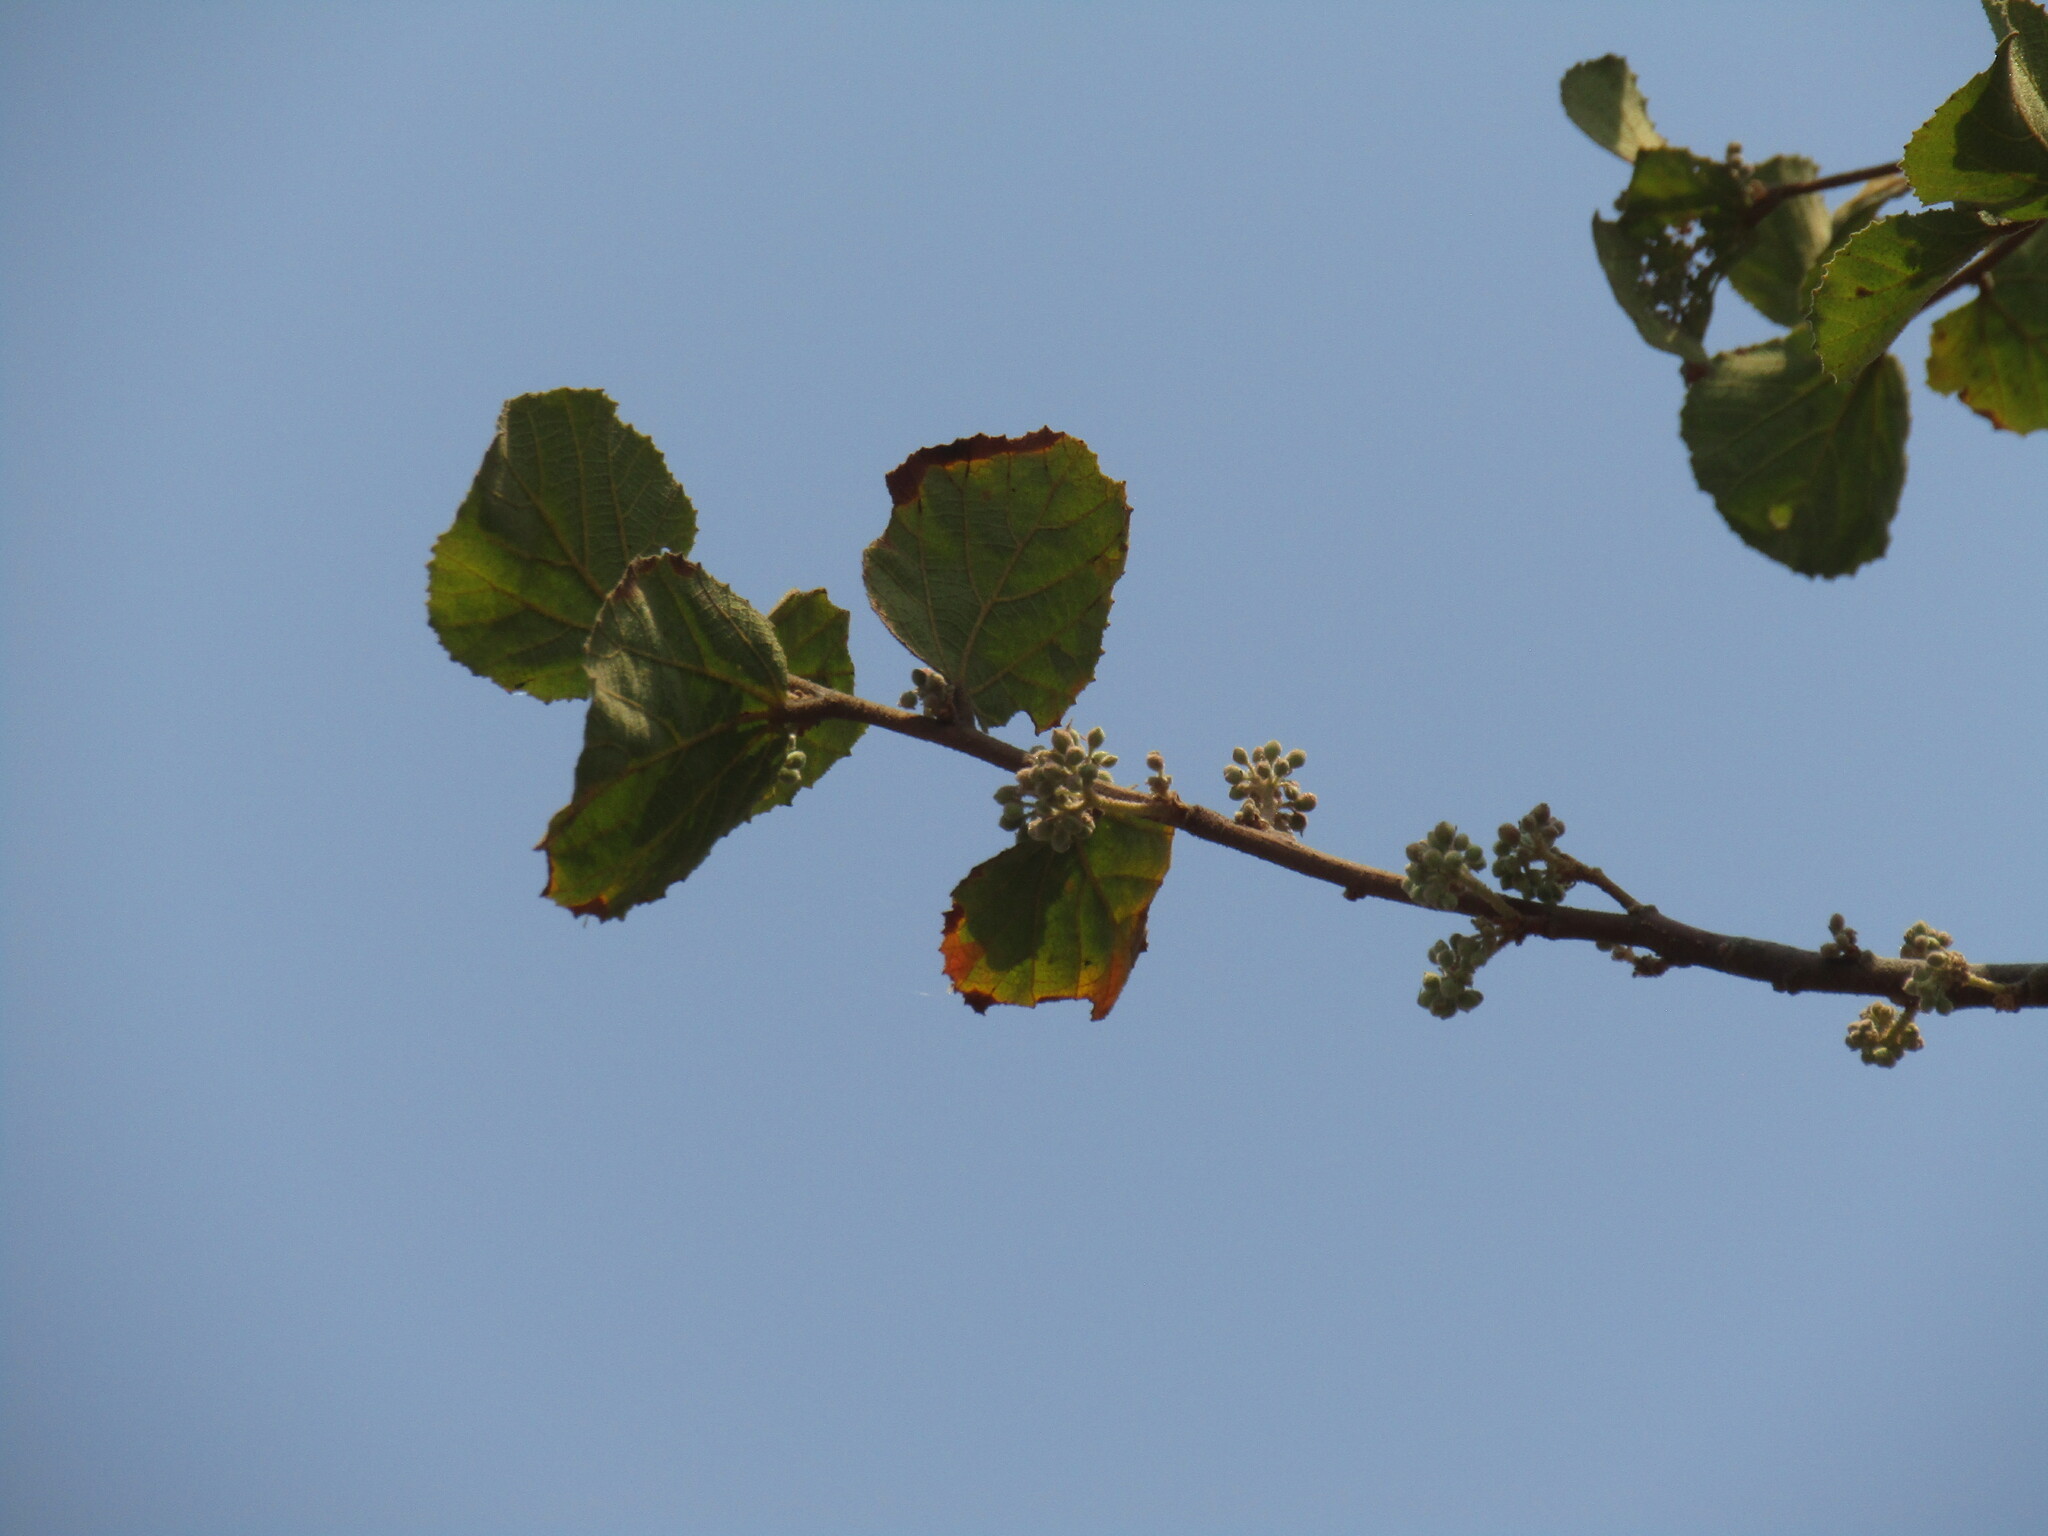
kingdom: Plantae
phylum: Tracheophyta
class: Magnoliopsida
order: Malvales
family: Malvaceae
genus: Dombeya
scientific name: Dombeya rotundifolia
